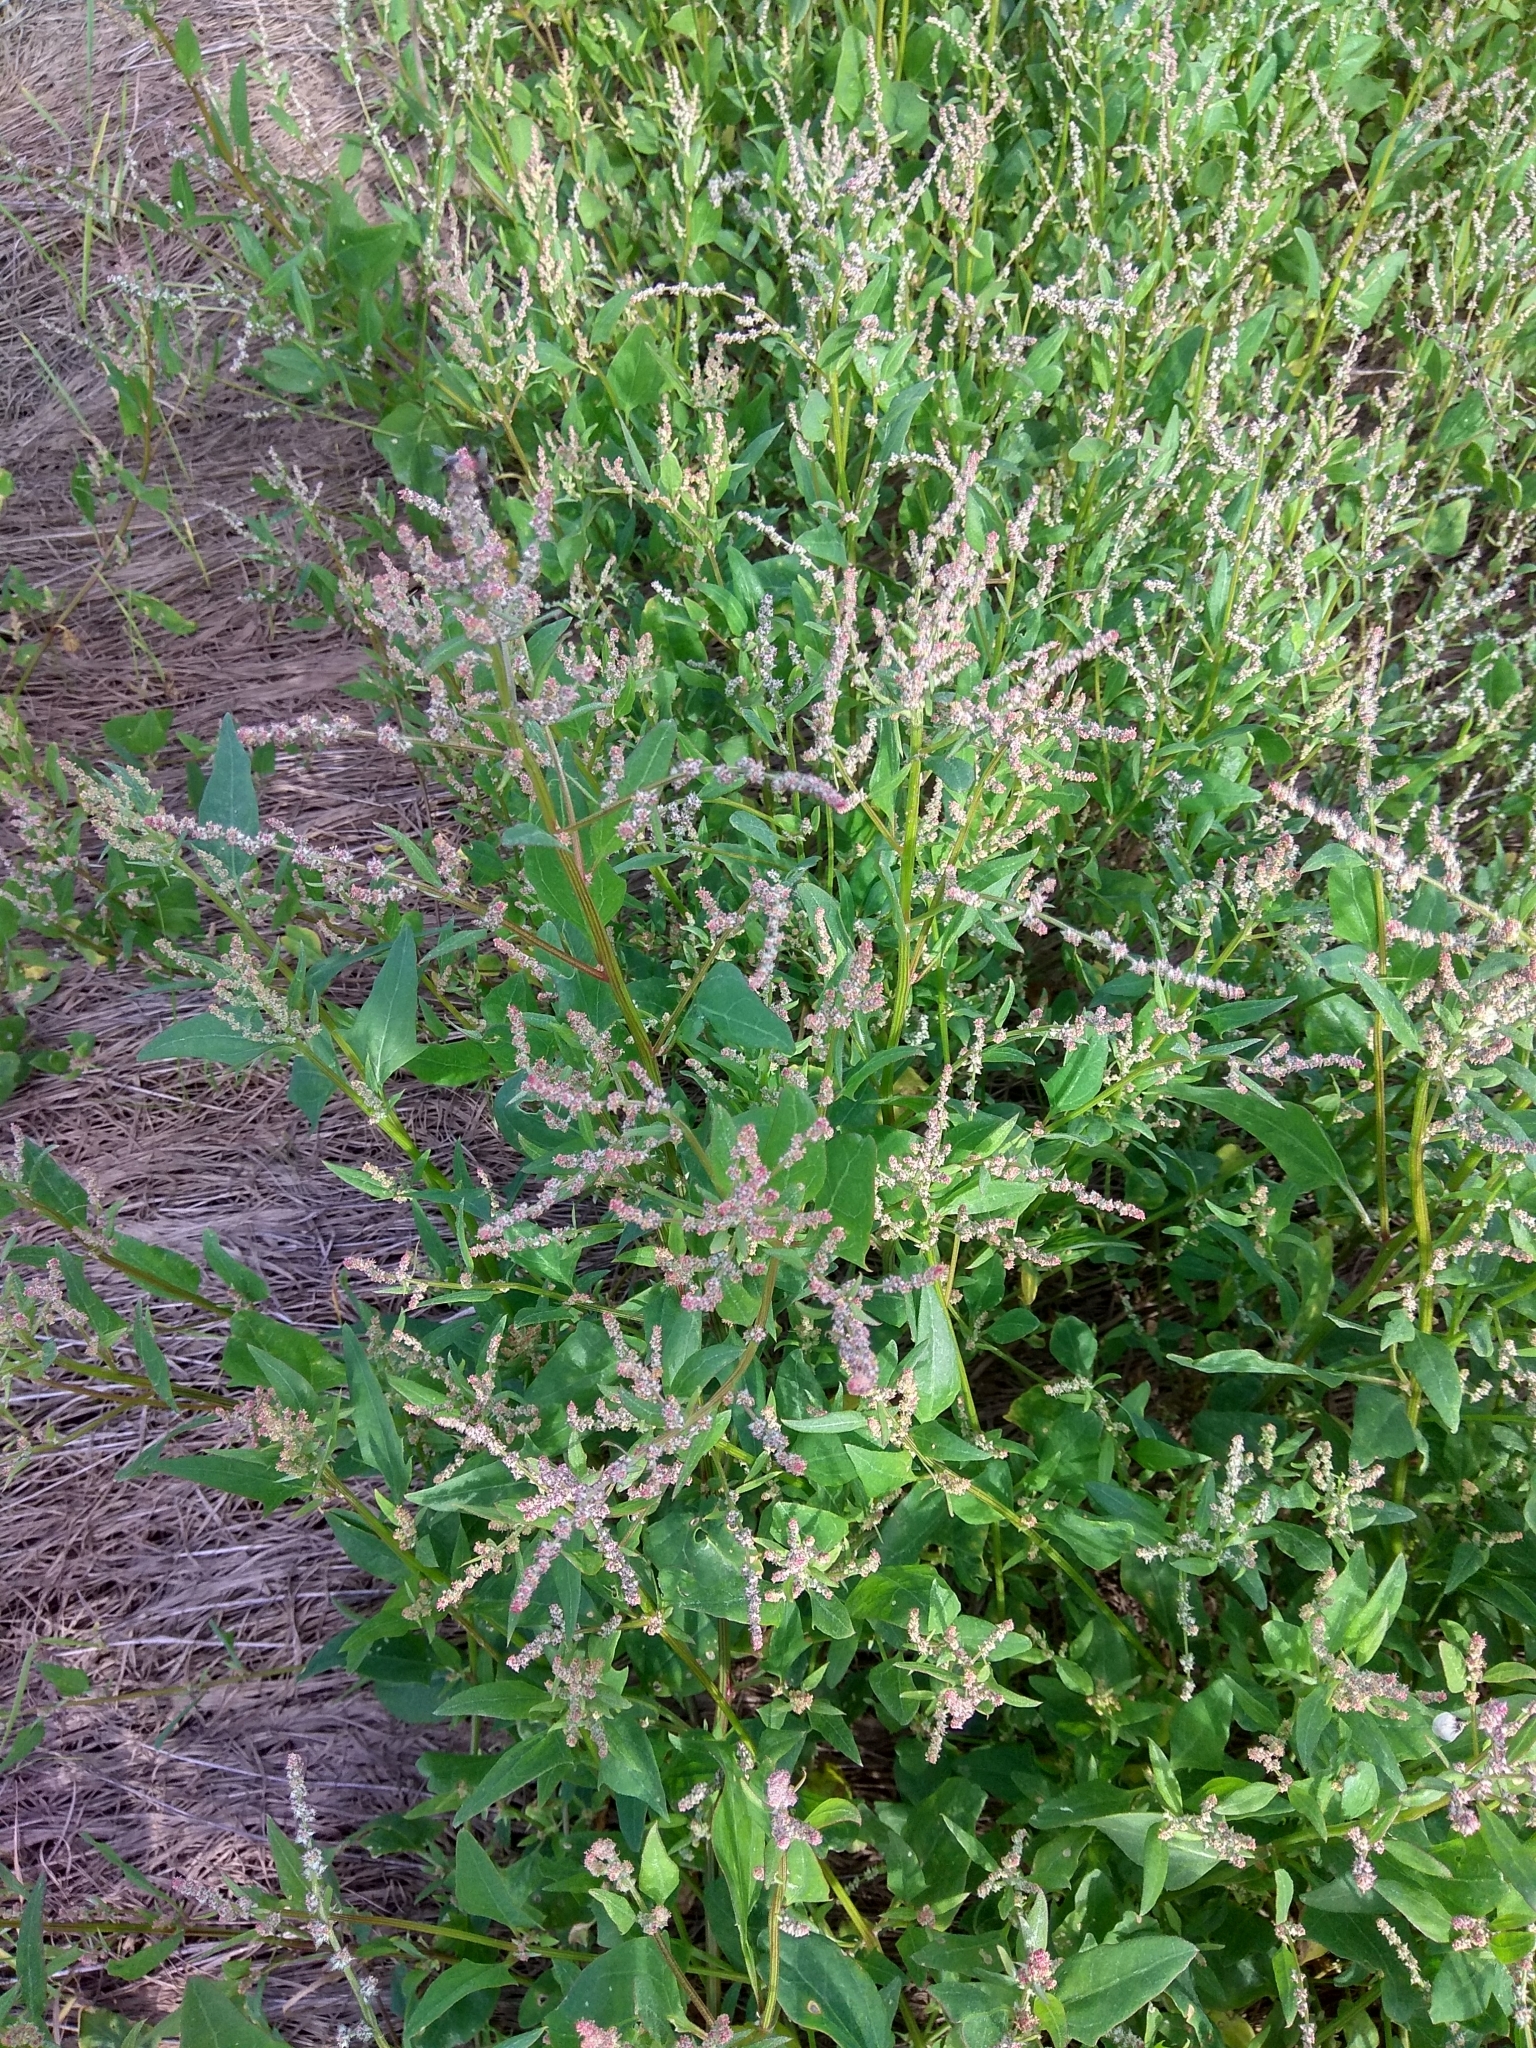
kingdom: Plantae
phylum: Tracheophyta
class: Magnoliopsida
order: Caryophyllales
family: Amaranthaceae
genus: Atriplex
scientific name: Atriplex prostrata
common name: Spear-leaved orache
